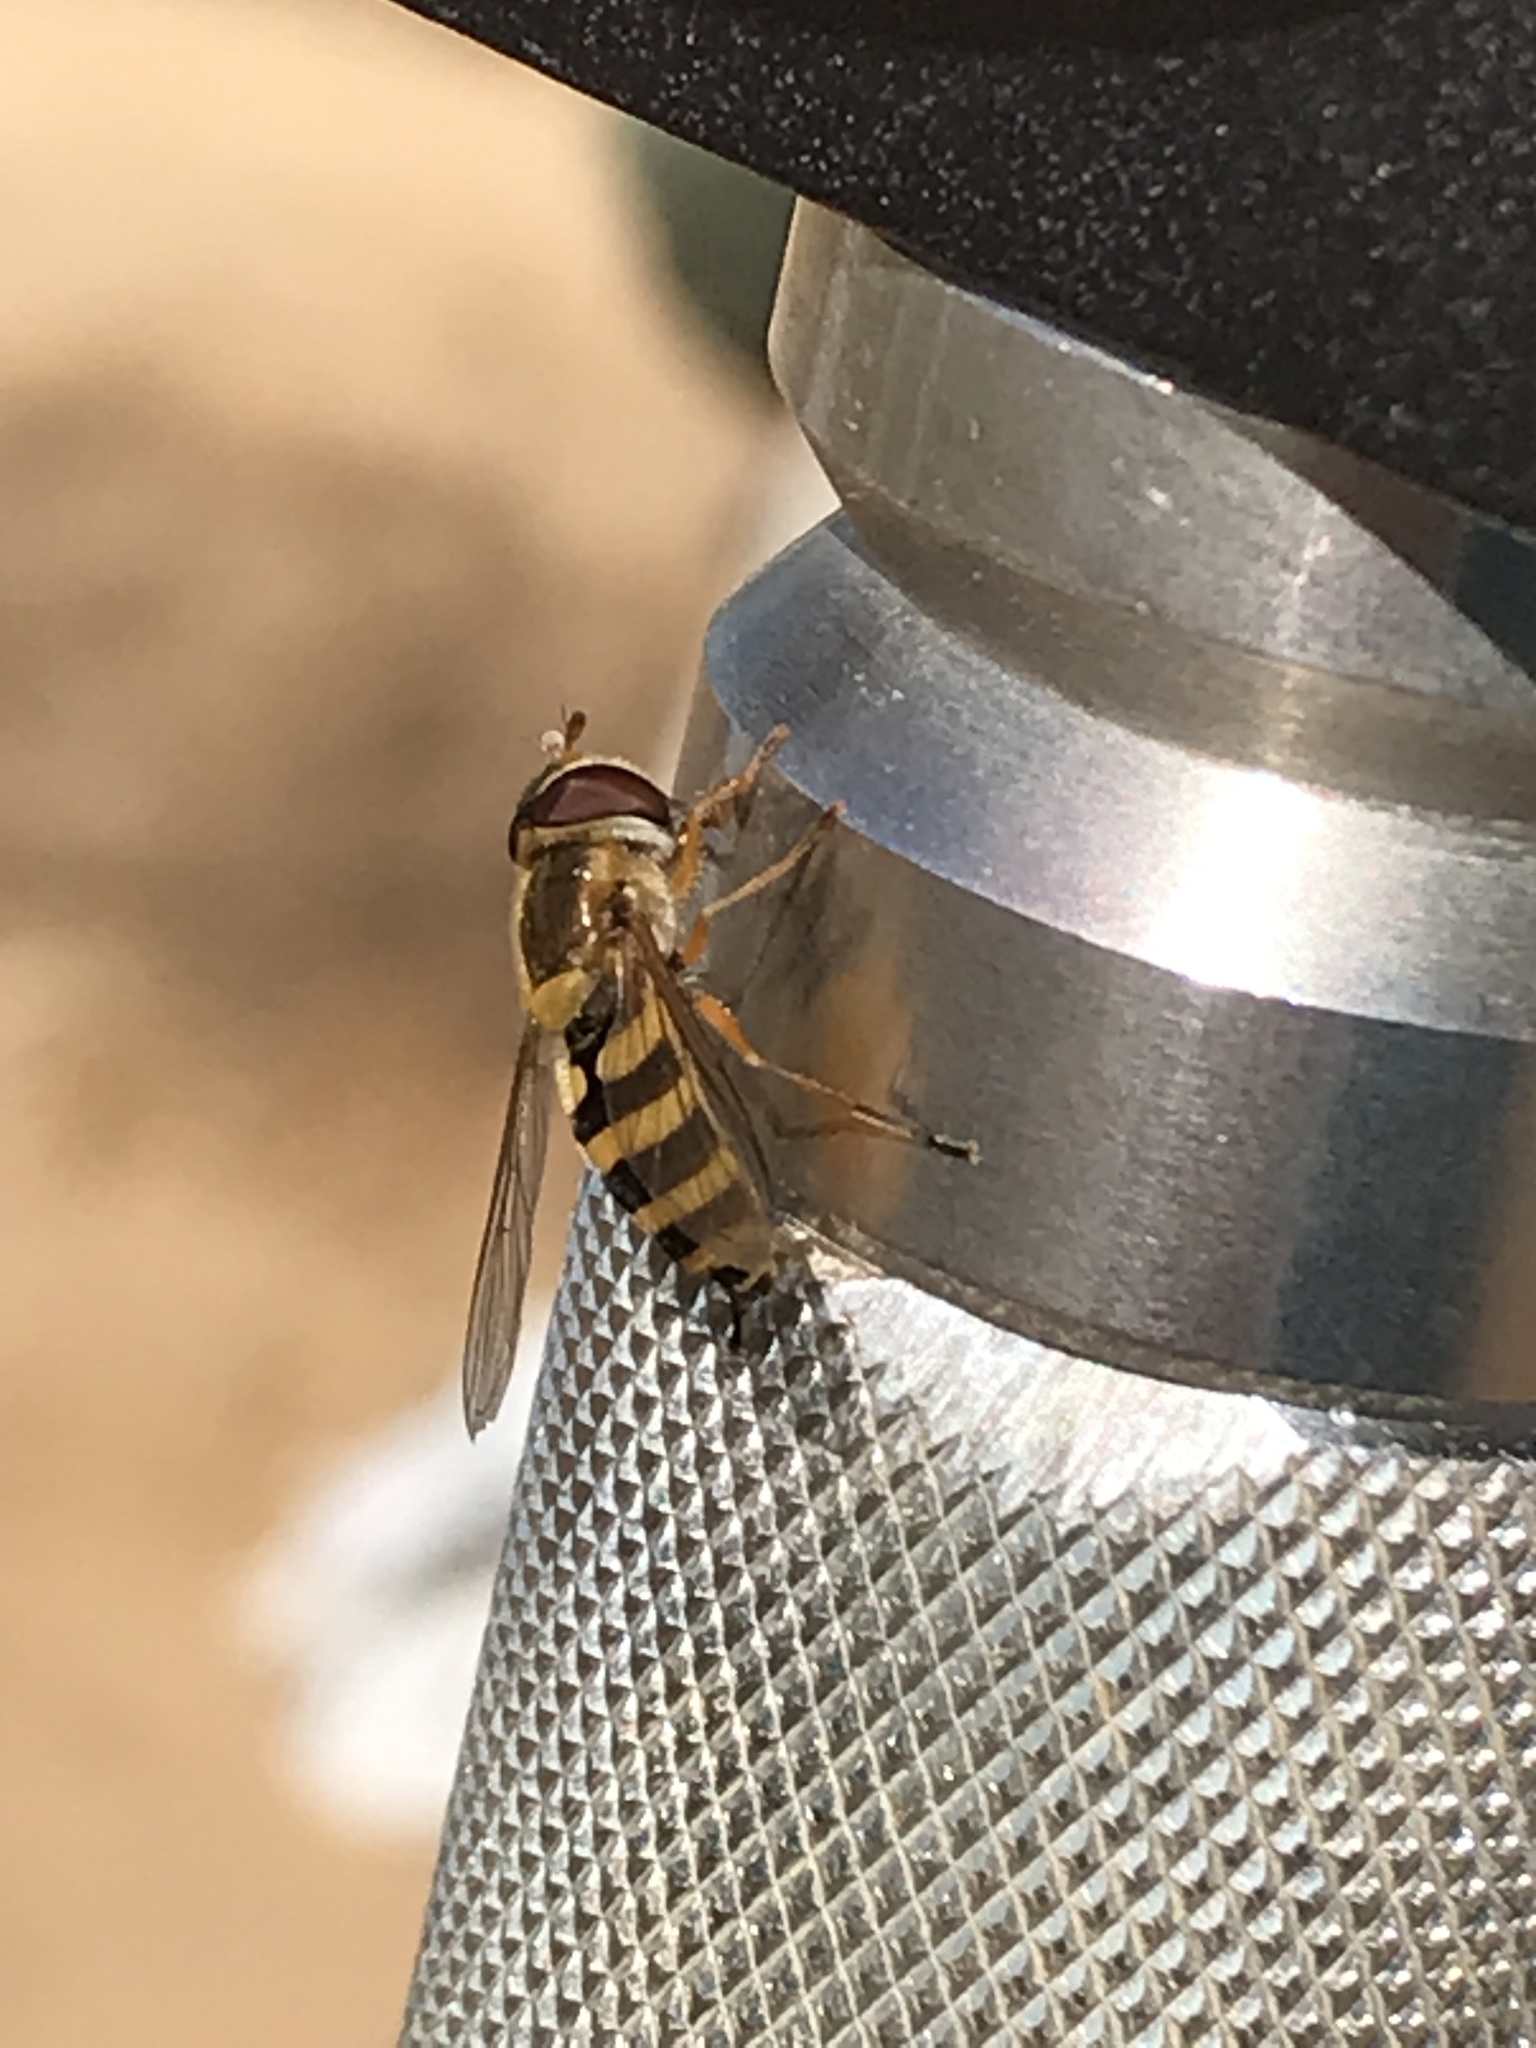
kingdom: Animalia
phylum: Arthropoda
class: Insecta
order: Diptera
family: Syrphidae
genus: Syrphus
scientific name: Syrphus ribesii
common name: Common flower fly
